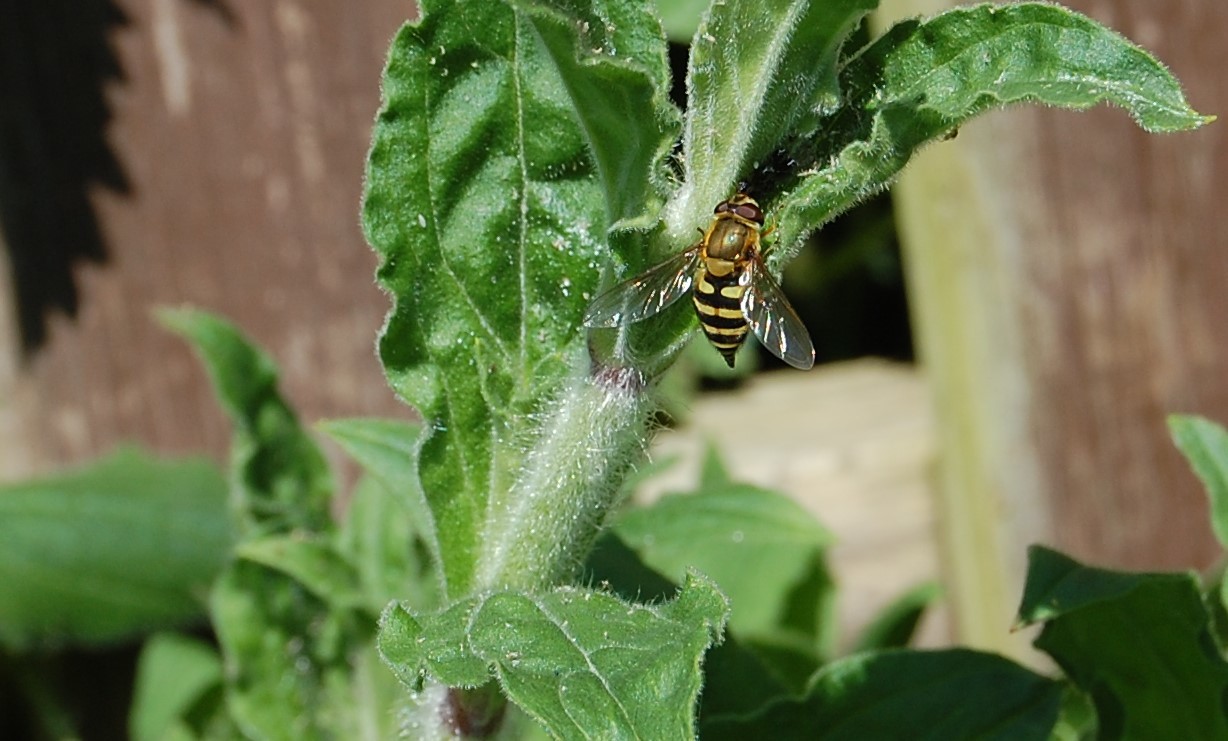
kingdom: Animalia
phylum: Arthropoda
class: Insecta
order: Diptera
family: Syrphidae
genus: Syrphus
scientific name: Syrphus
